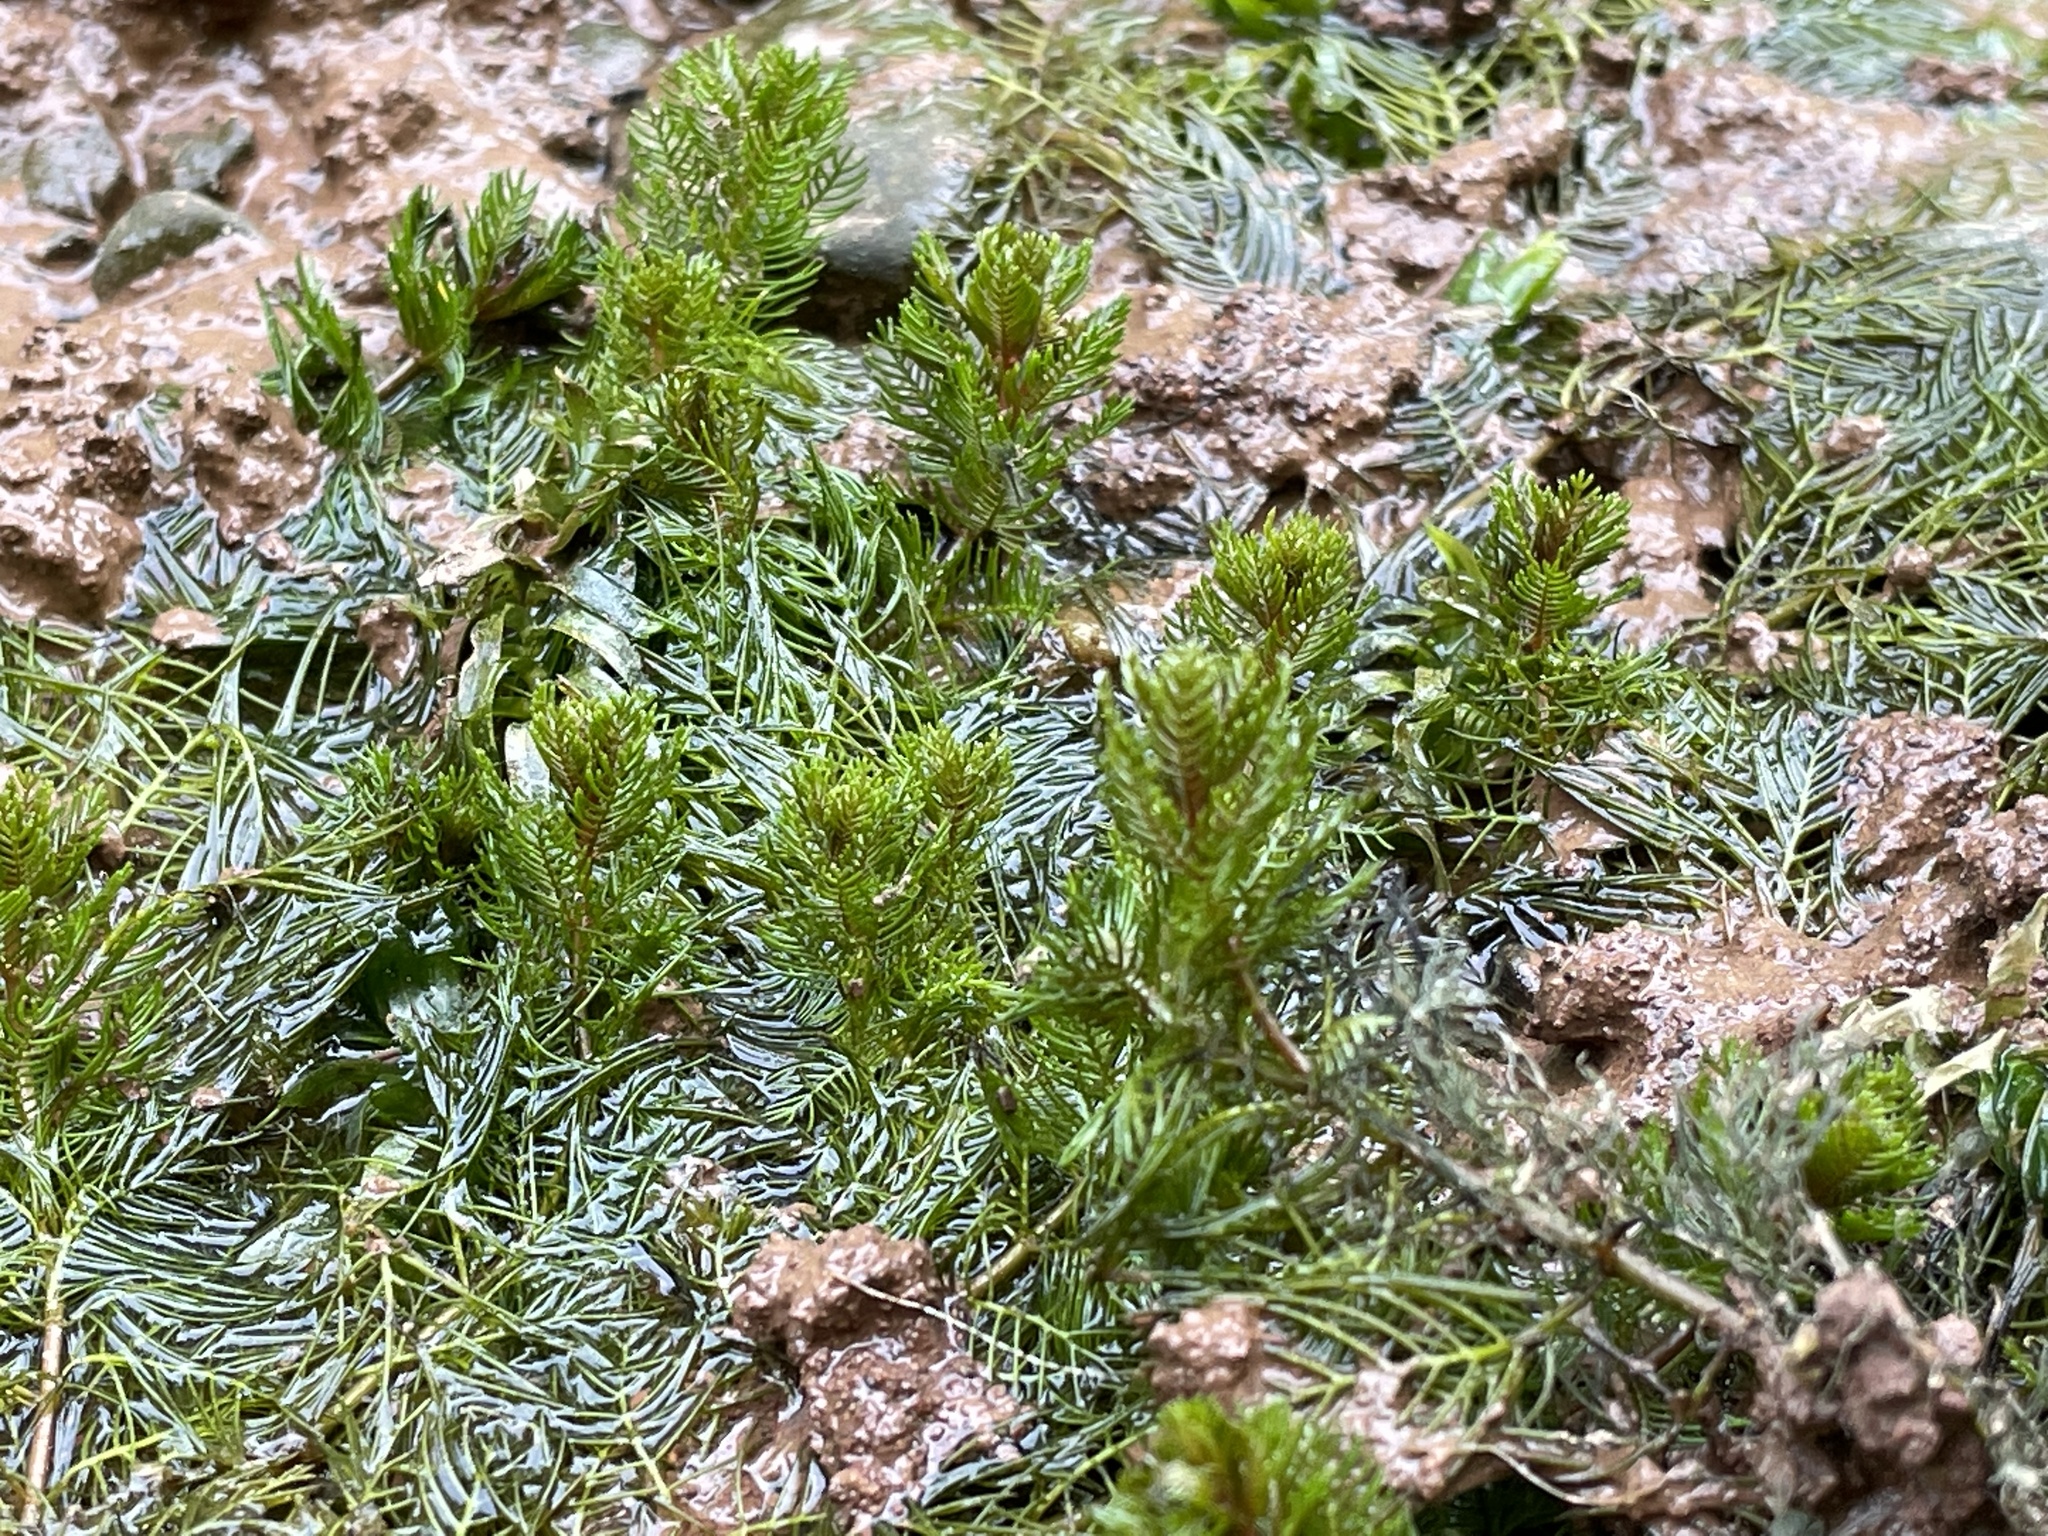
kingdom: Plantae
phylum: Tracheophyta
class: Magnoliopsida
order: Saxifragales
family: Haloragaceae
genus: Myriophyllum
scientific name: Myriophyllum verticillatum
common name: Whorled water-milfoil
